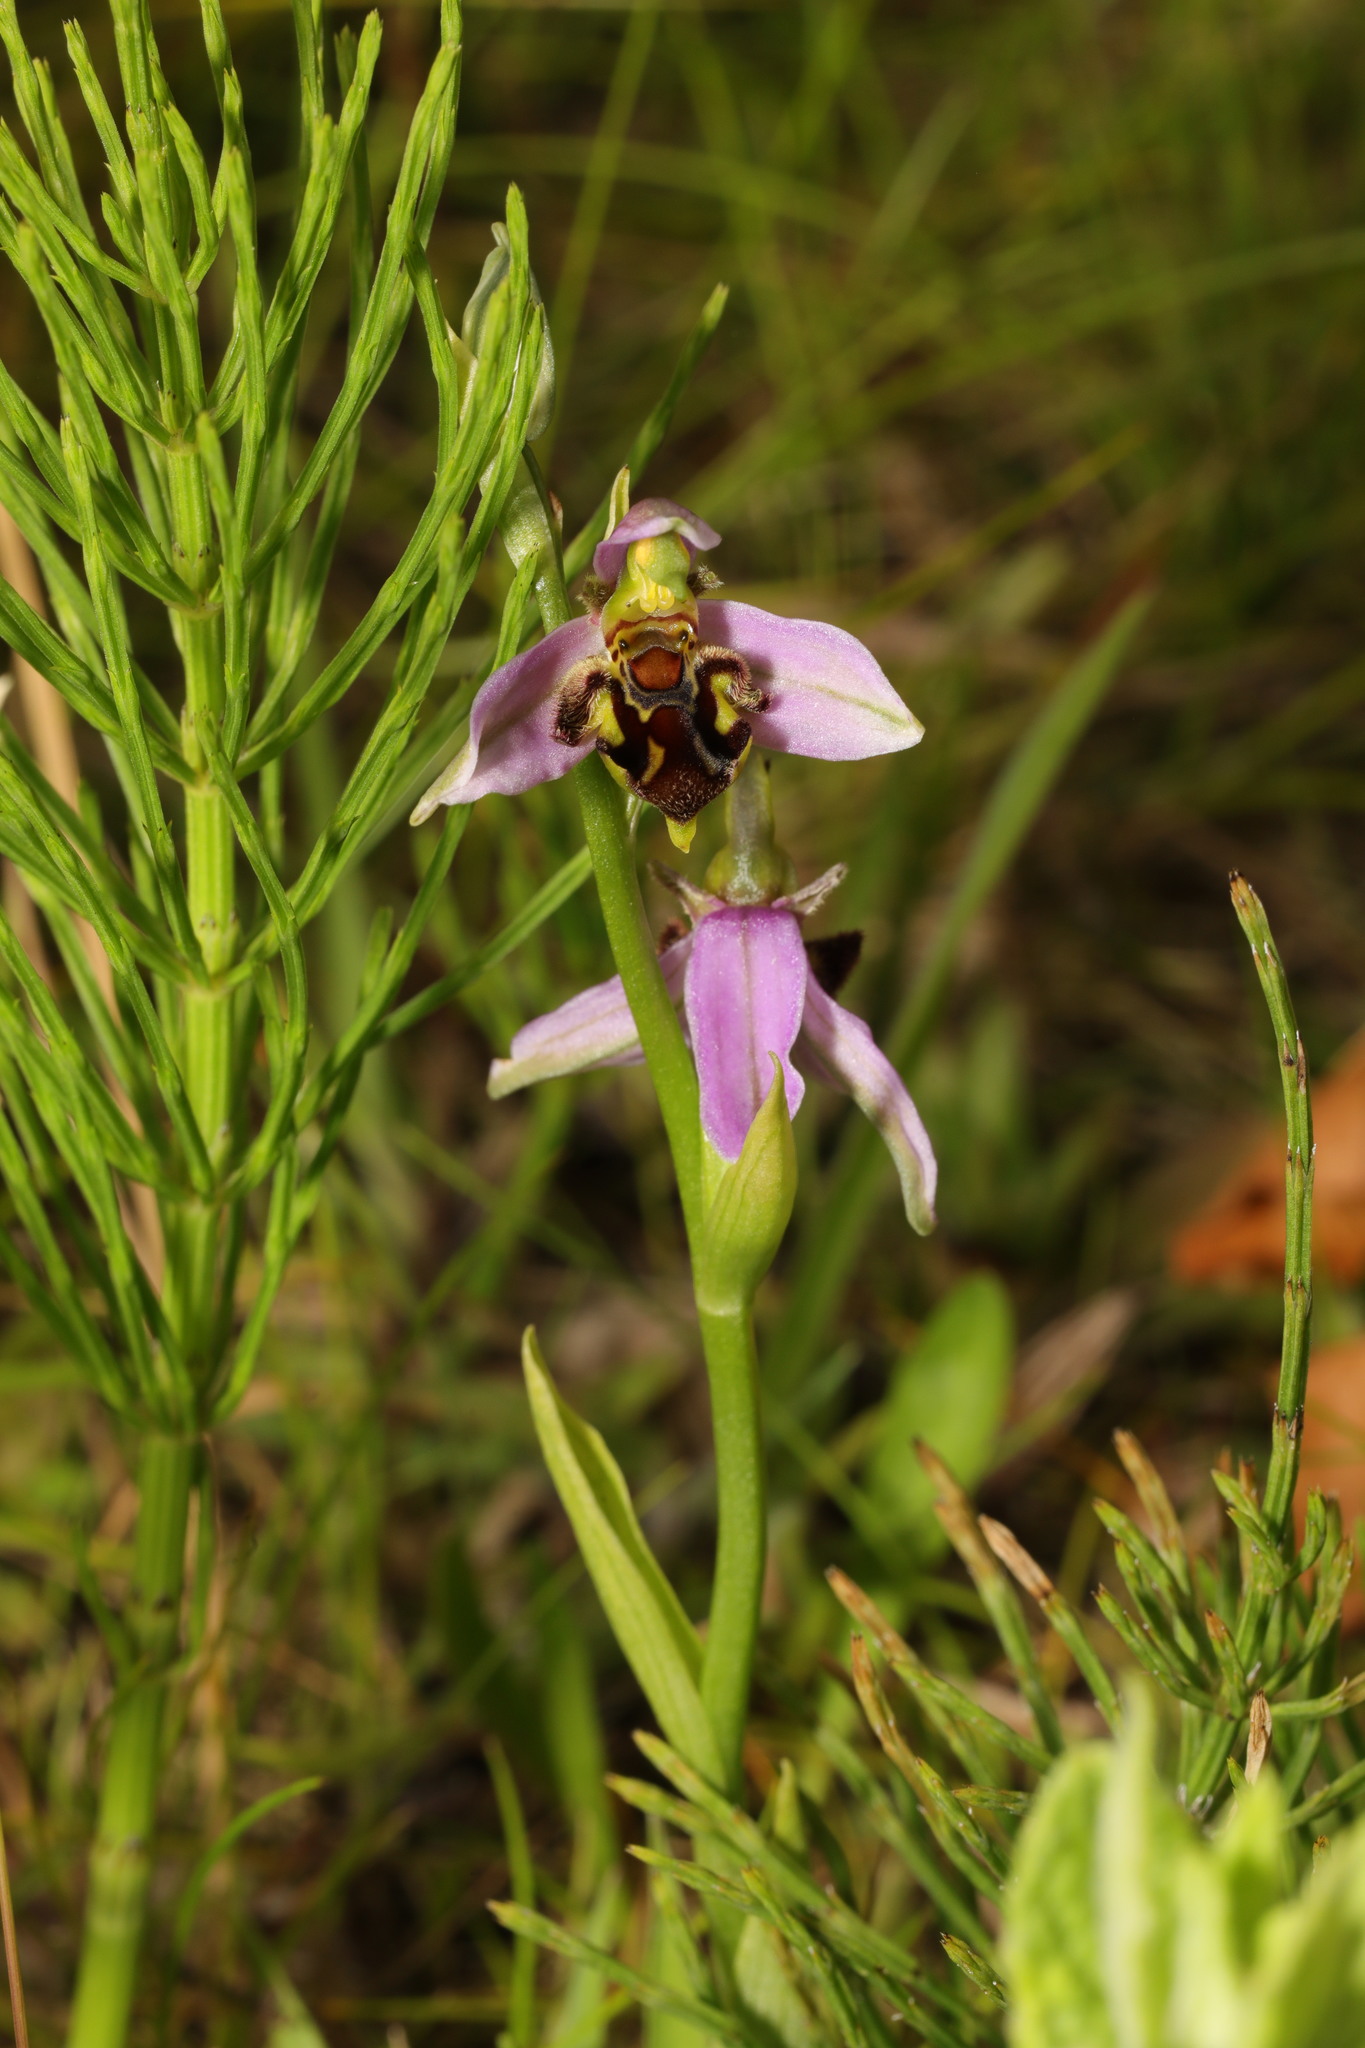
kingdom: Plantae
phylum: Tracheophyta
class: Liliopsida
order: Asparagales
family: Orchidaceae
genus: Ophrys
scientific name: Ophrys apifera
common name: Bee orchid
